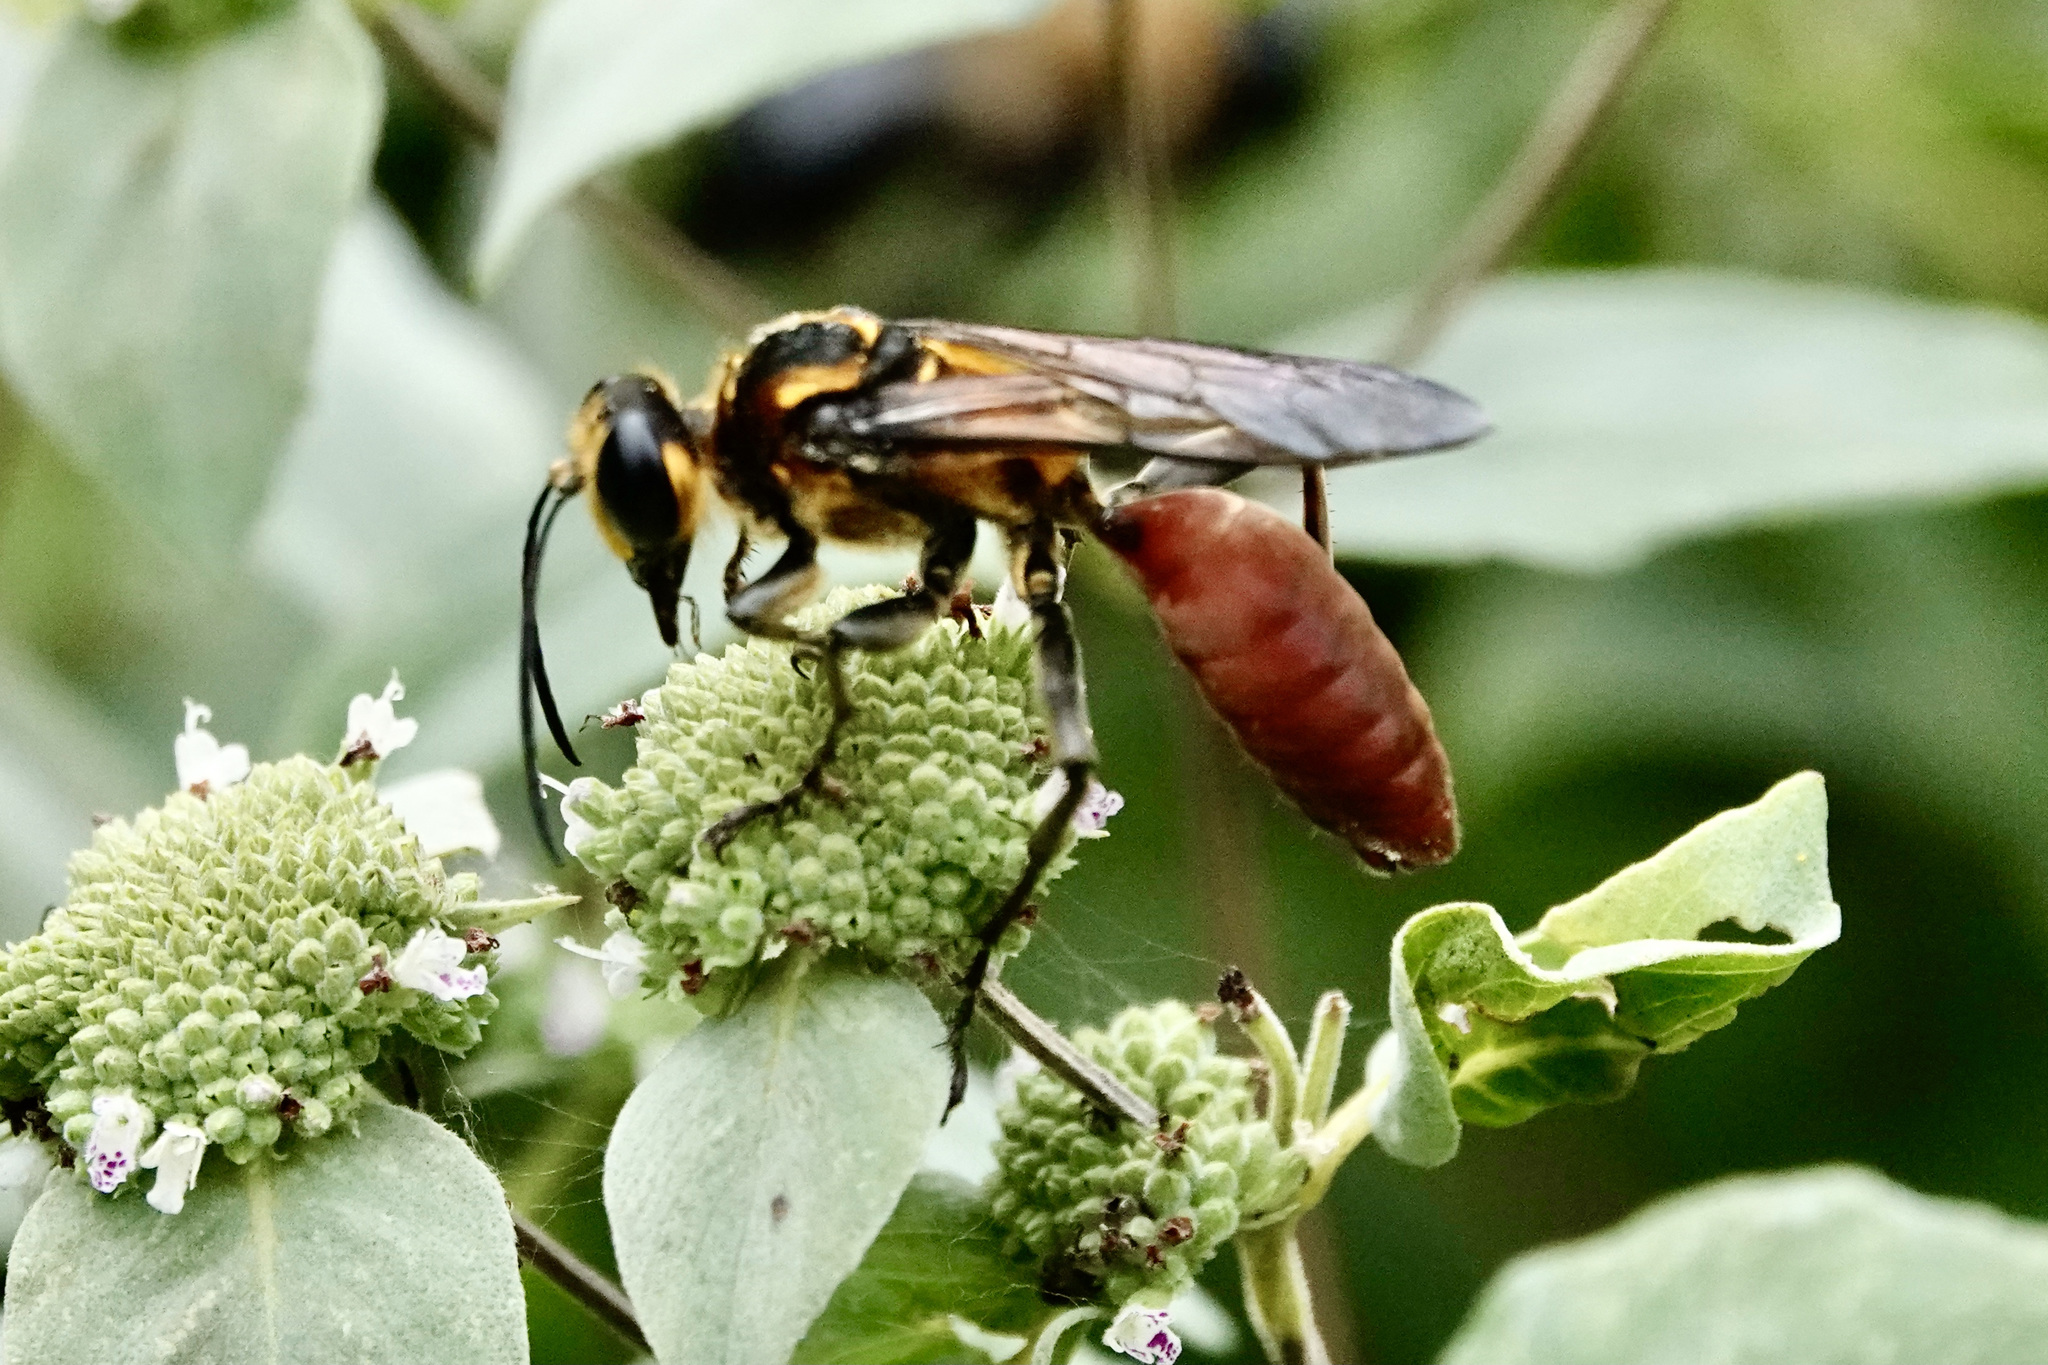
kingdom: Animalia
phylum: Arthropoda
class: Insecta
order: Hymenoptera
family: Sphecidae
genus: Sphex
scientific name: Sphex habenus
